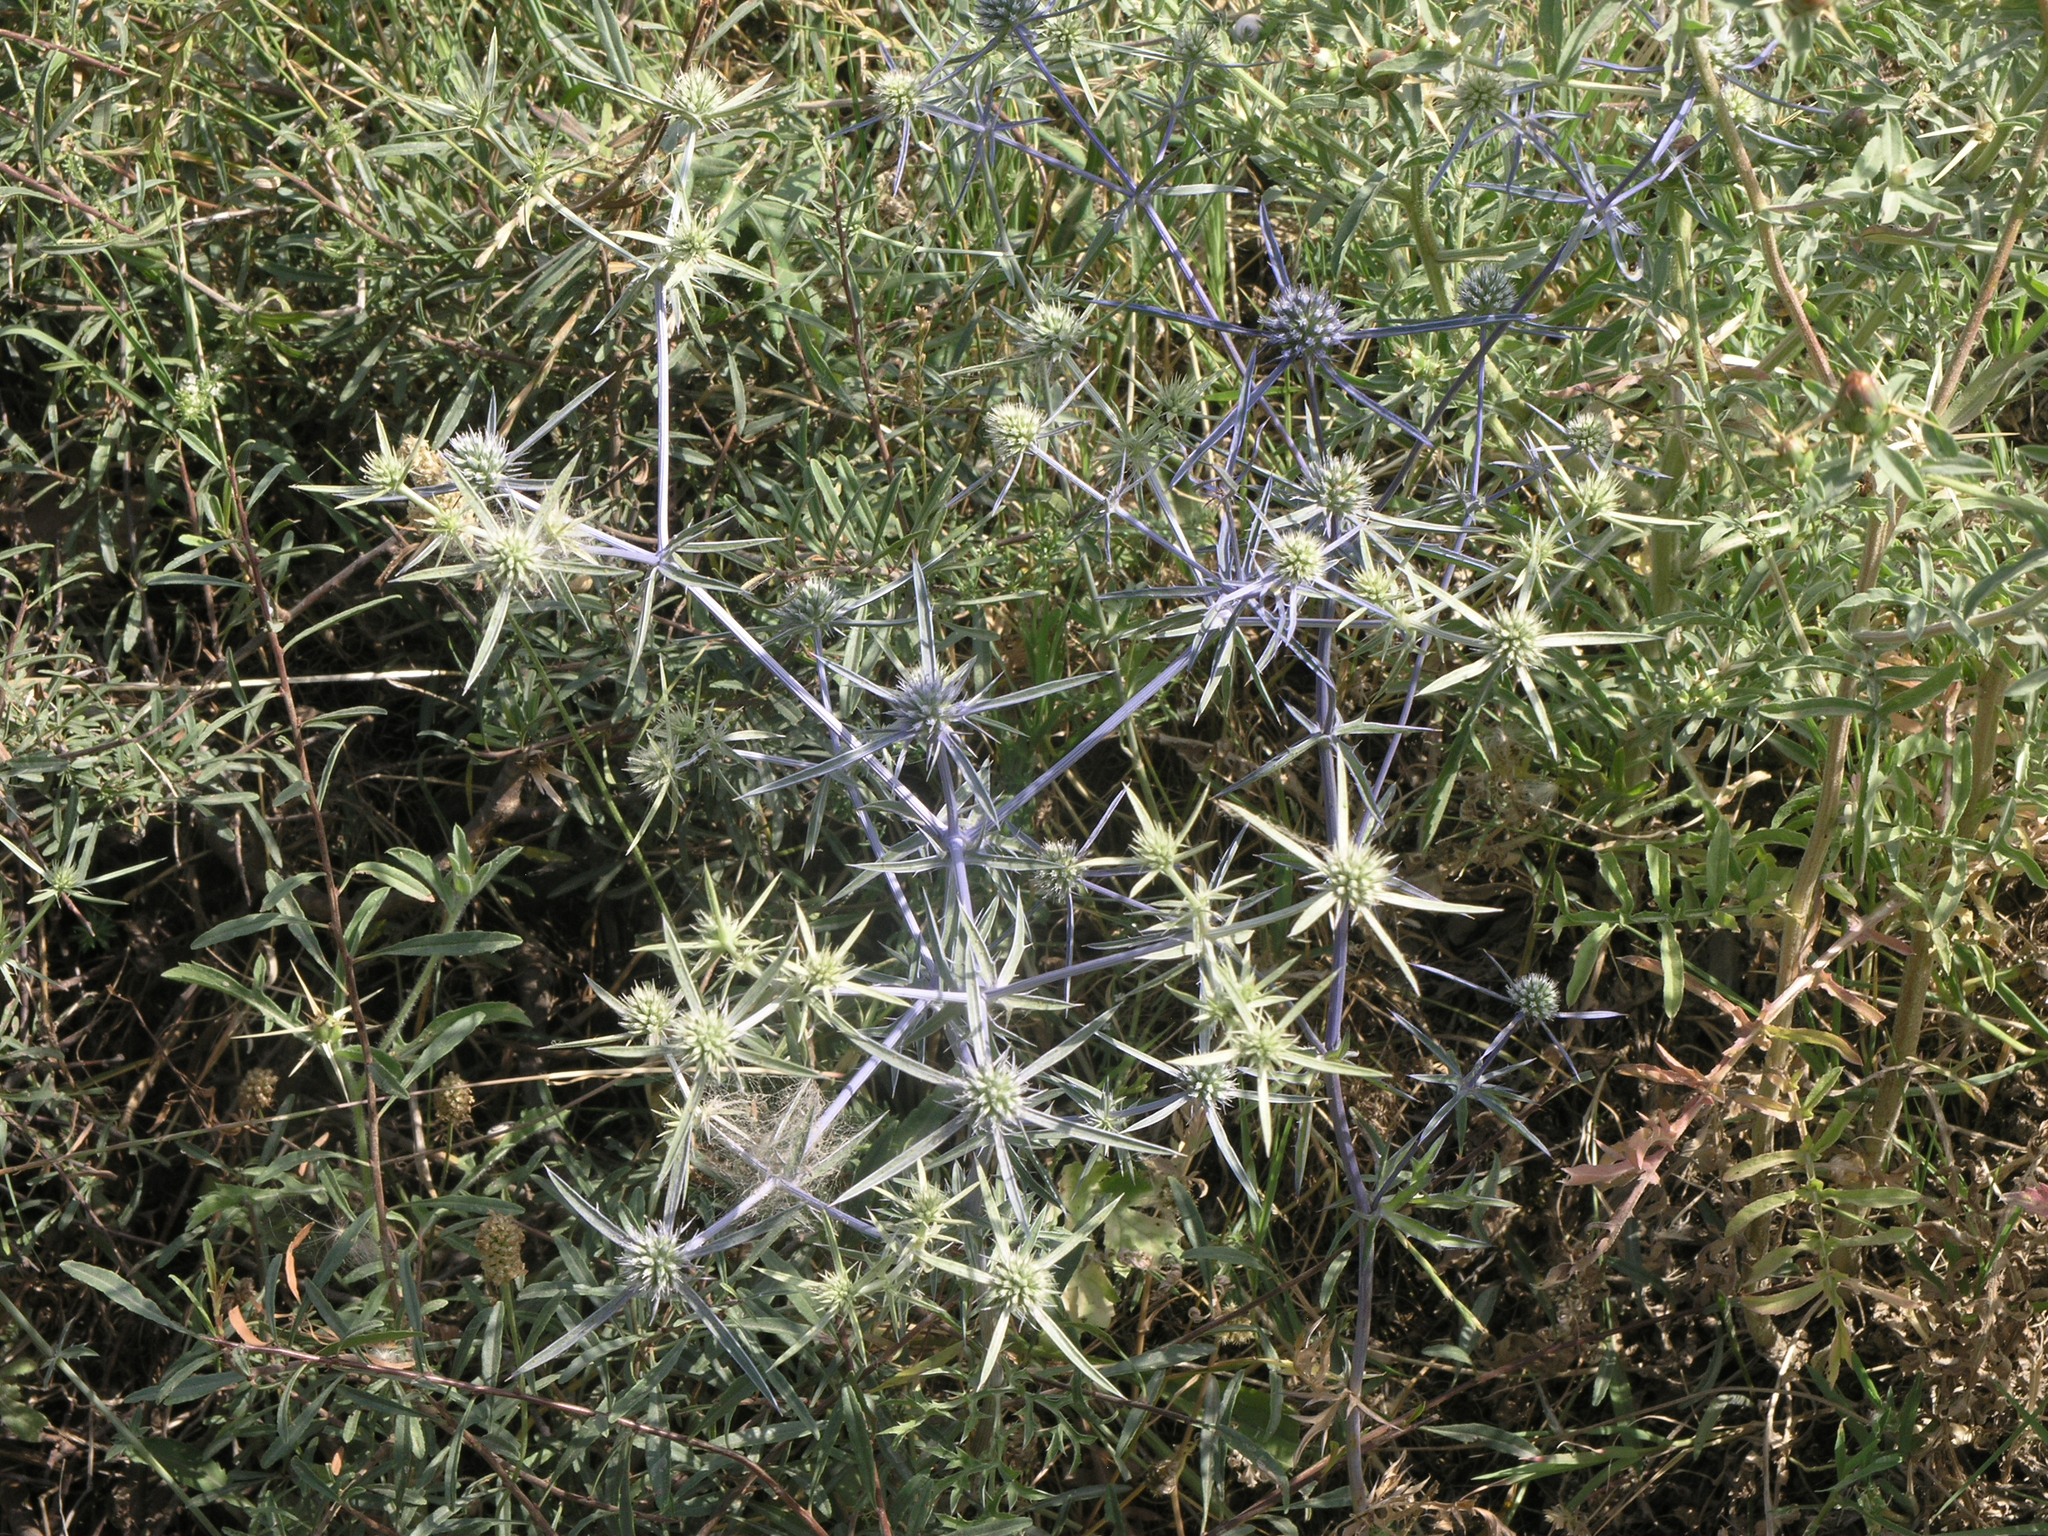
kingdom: Plantae
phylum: Tracheophyta
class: Magnoliopsida
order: Apiales
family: Apiaceae
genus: Eryngium
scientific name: Eryngium caeruleum
